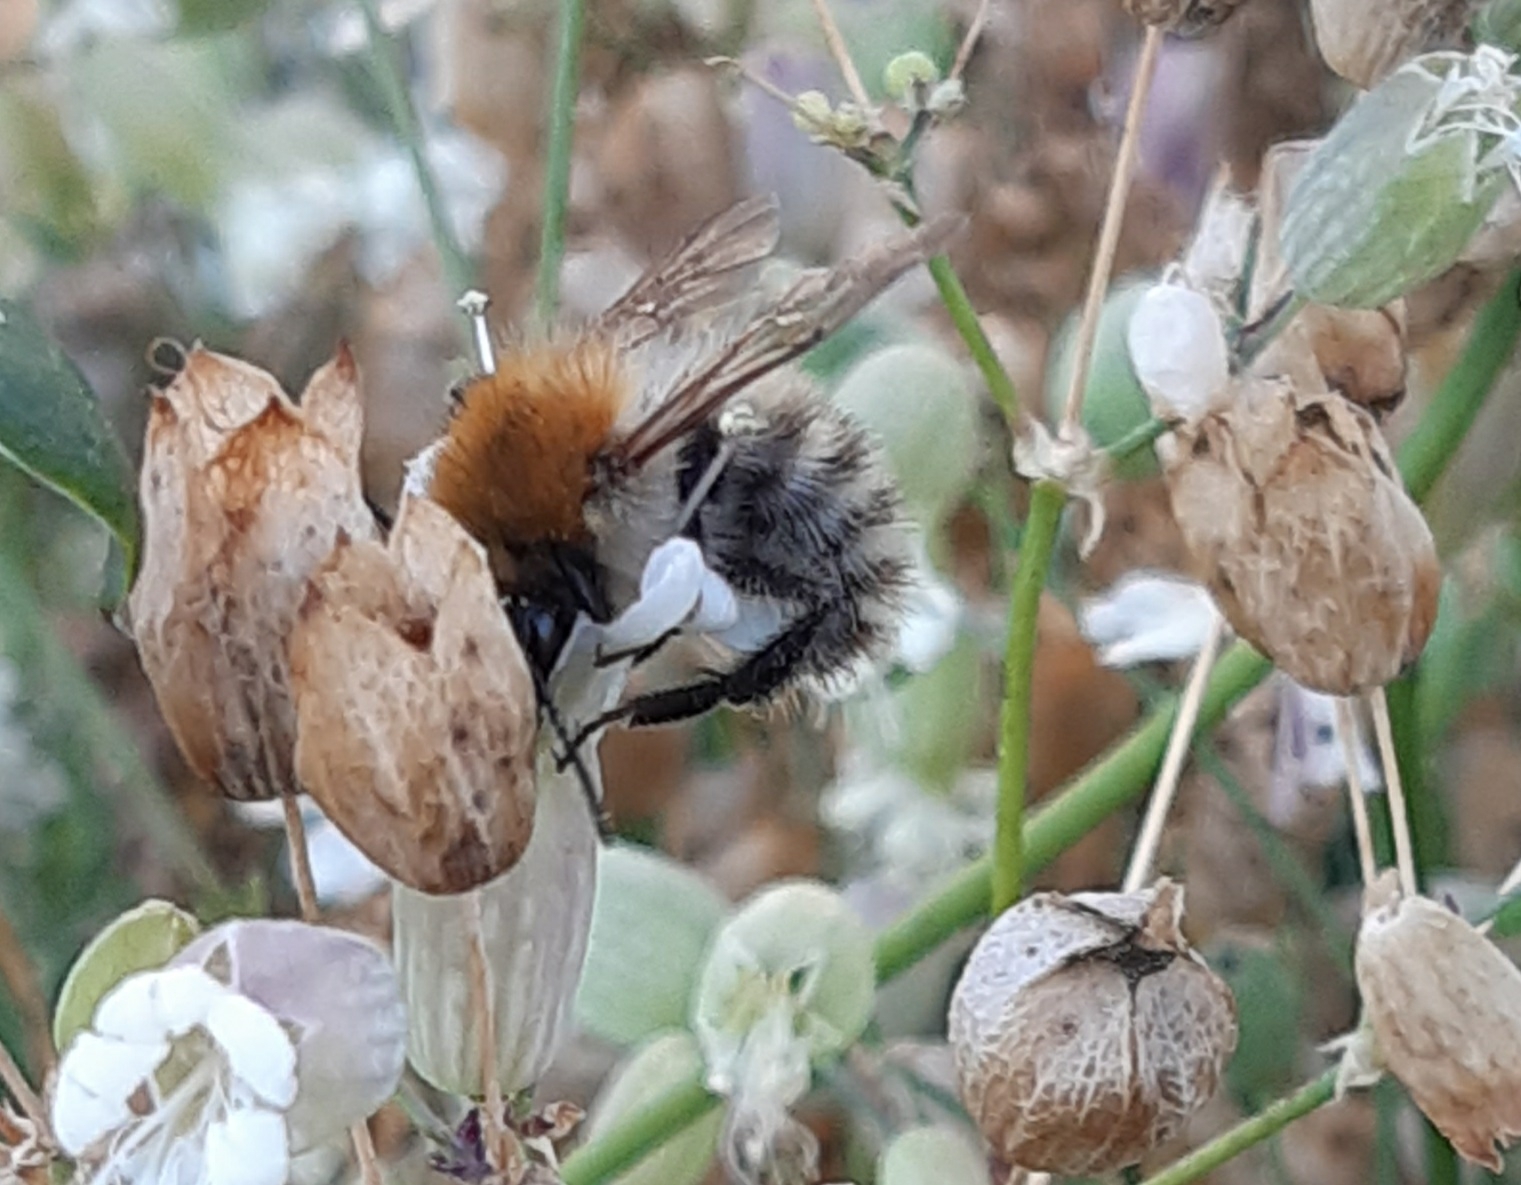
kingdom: Animalia
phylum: Arthropoda
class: Insecta
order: Hymenoptera
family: Apidae
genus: Bombus
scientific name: Bombus pascuorum
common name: Common carder bee
